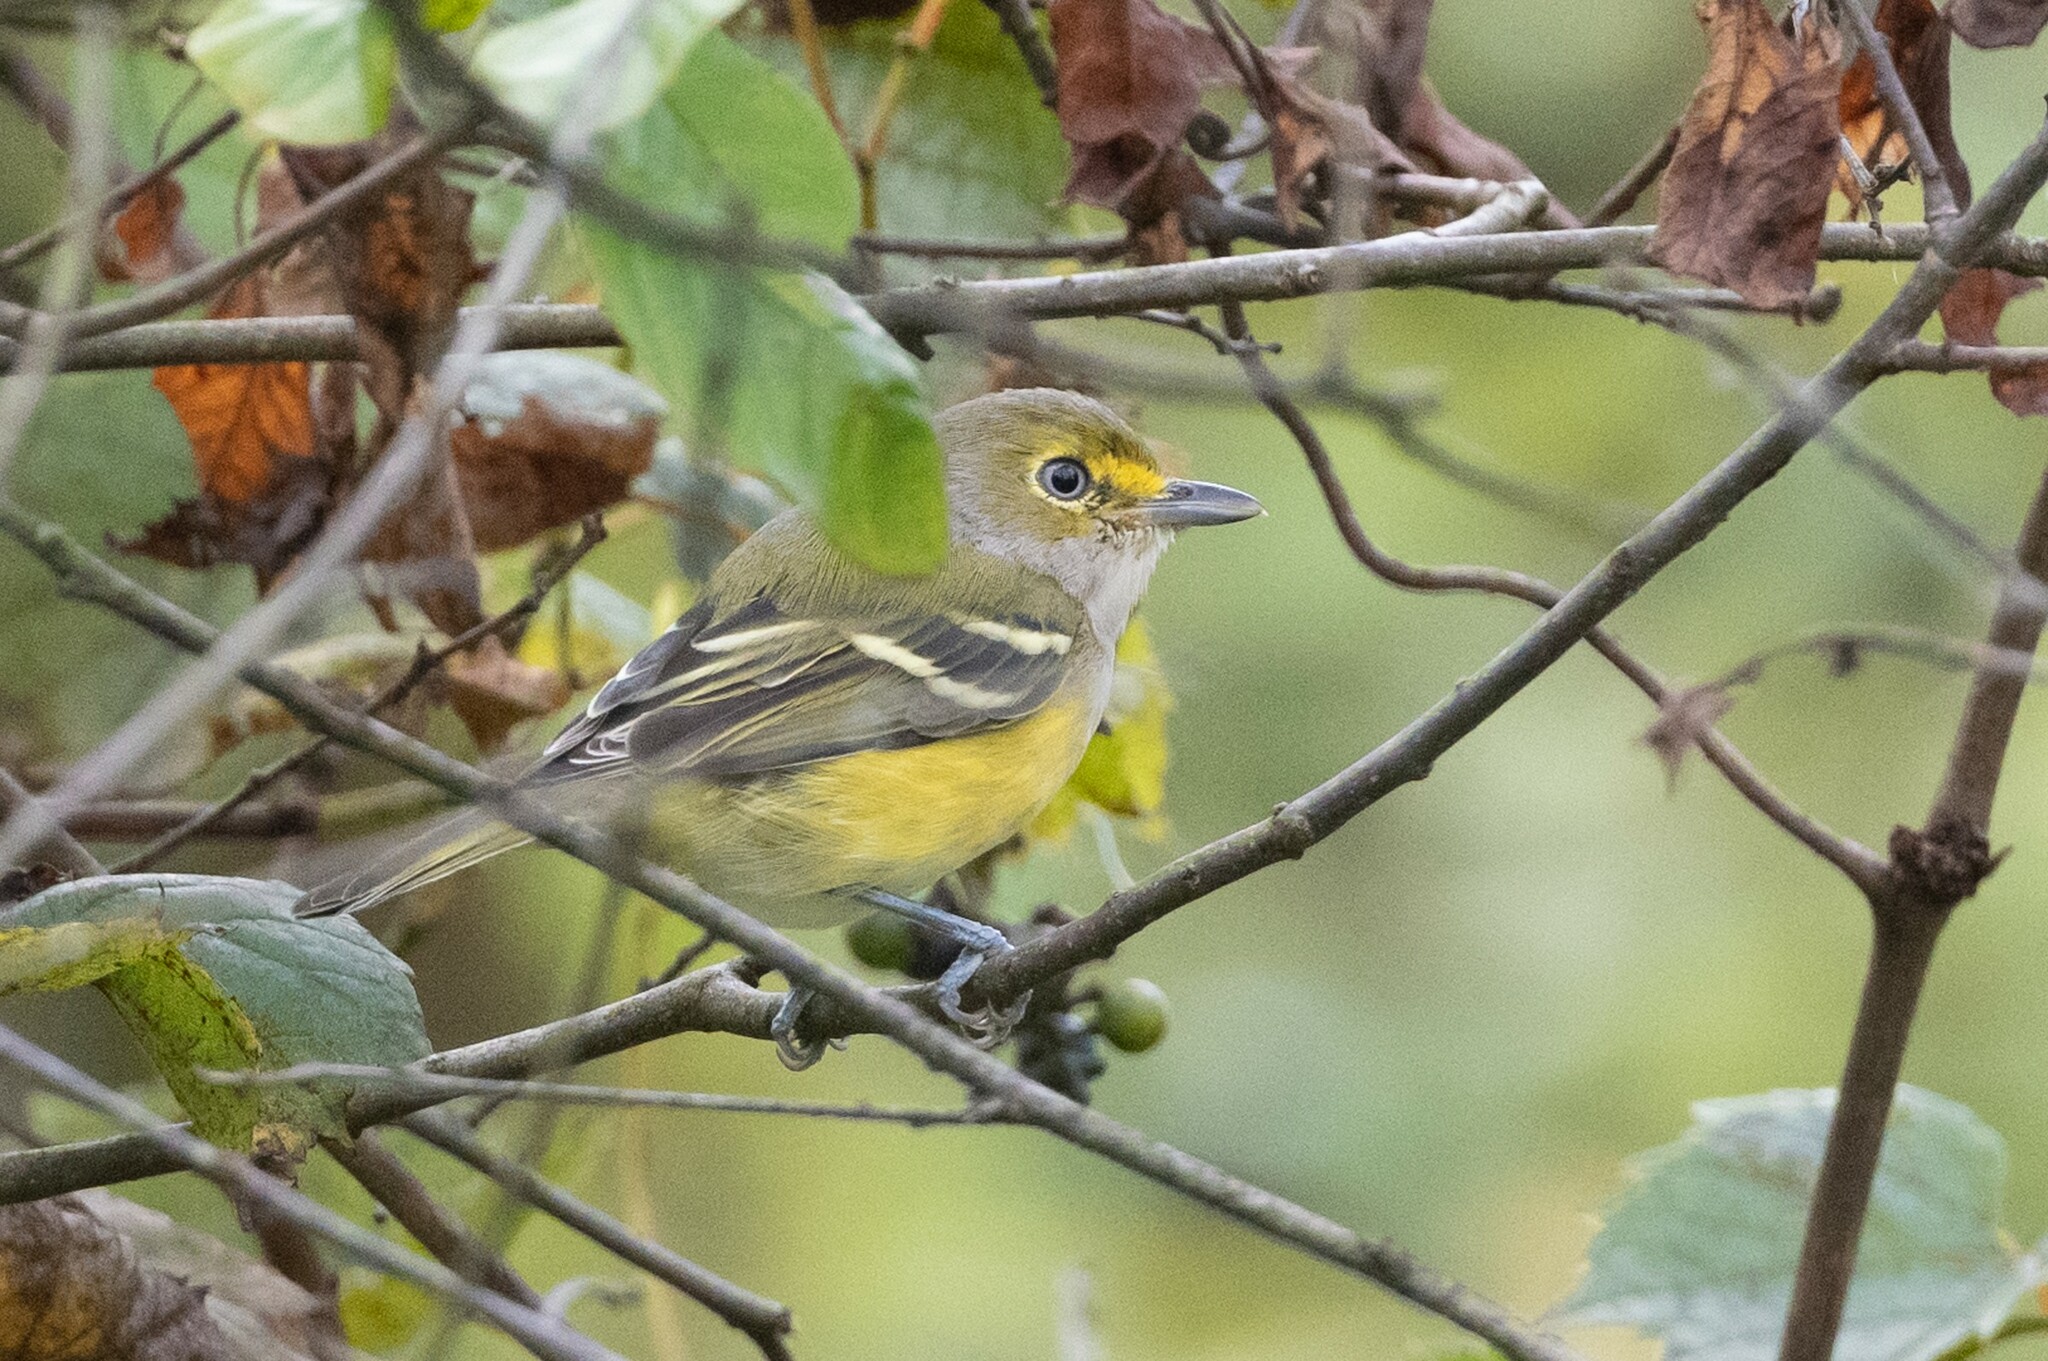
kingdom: Animalia
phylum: Chordata
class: Aves
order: Passeriformes
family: Vireonidae
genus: Vireo
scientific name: Vireo griseus
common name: White-eyed vireo
